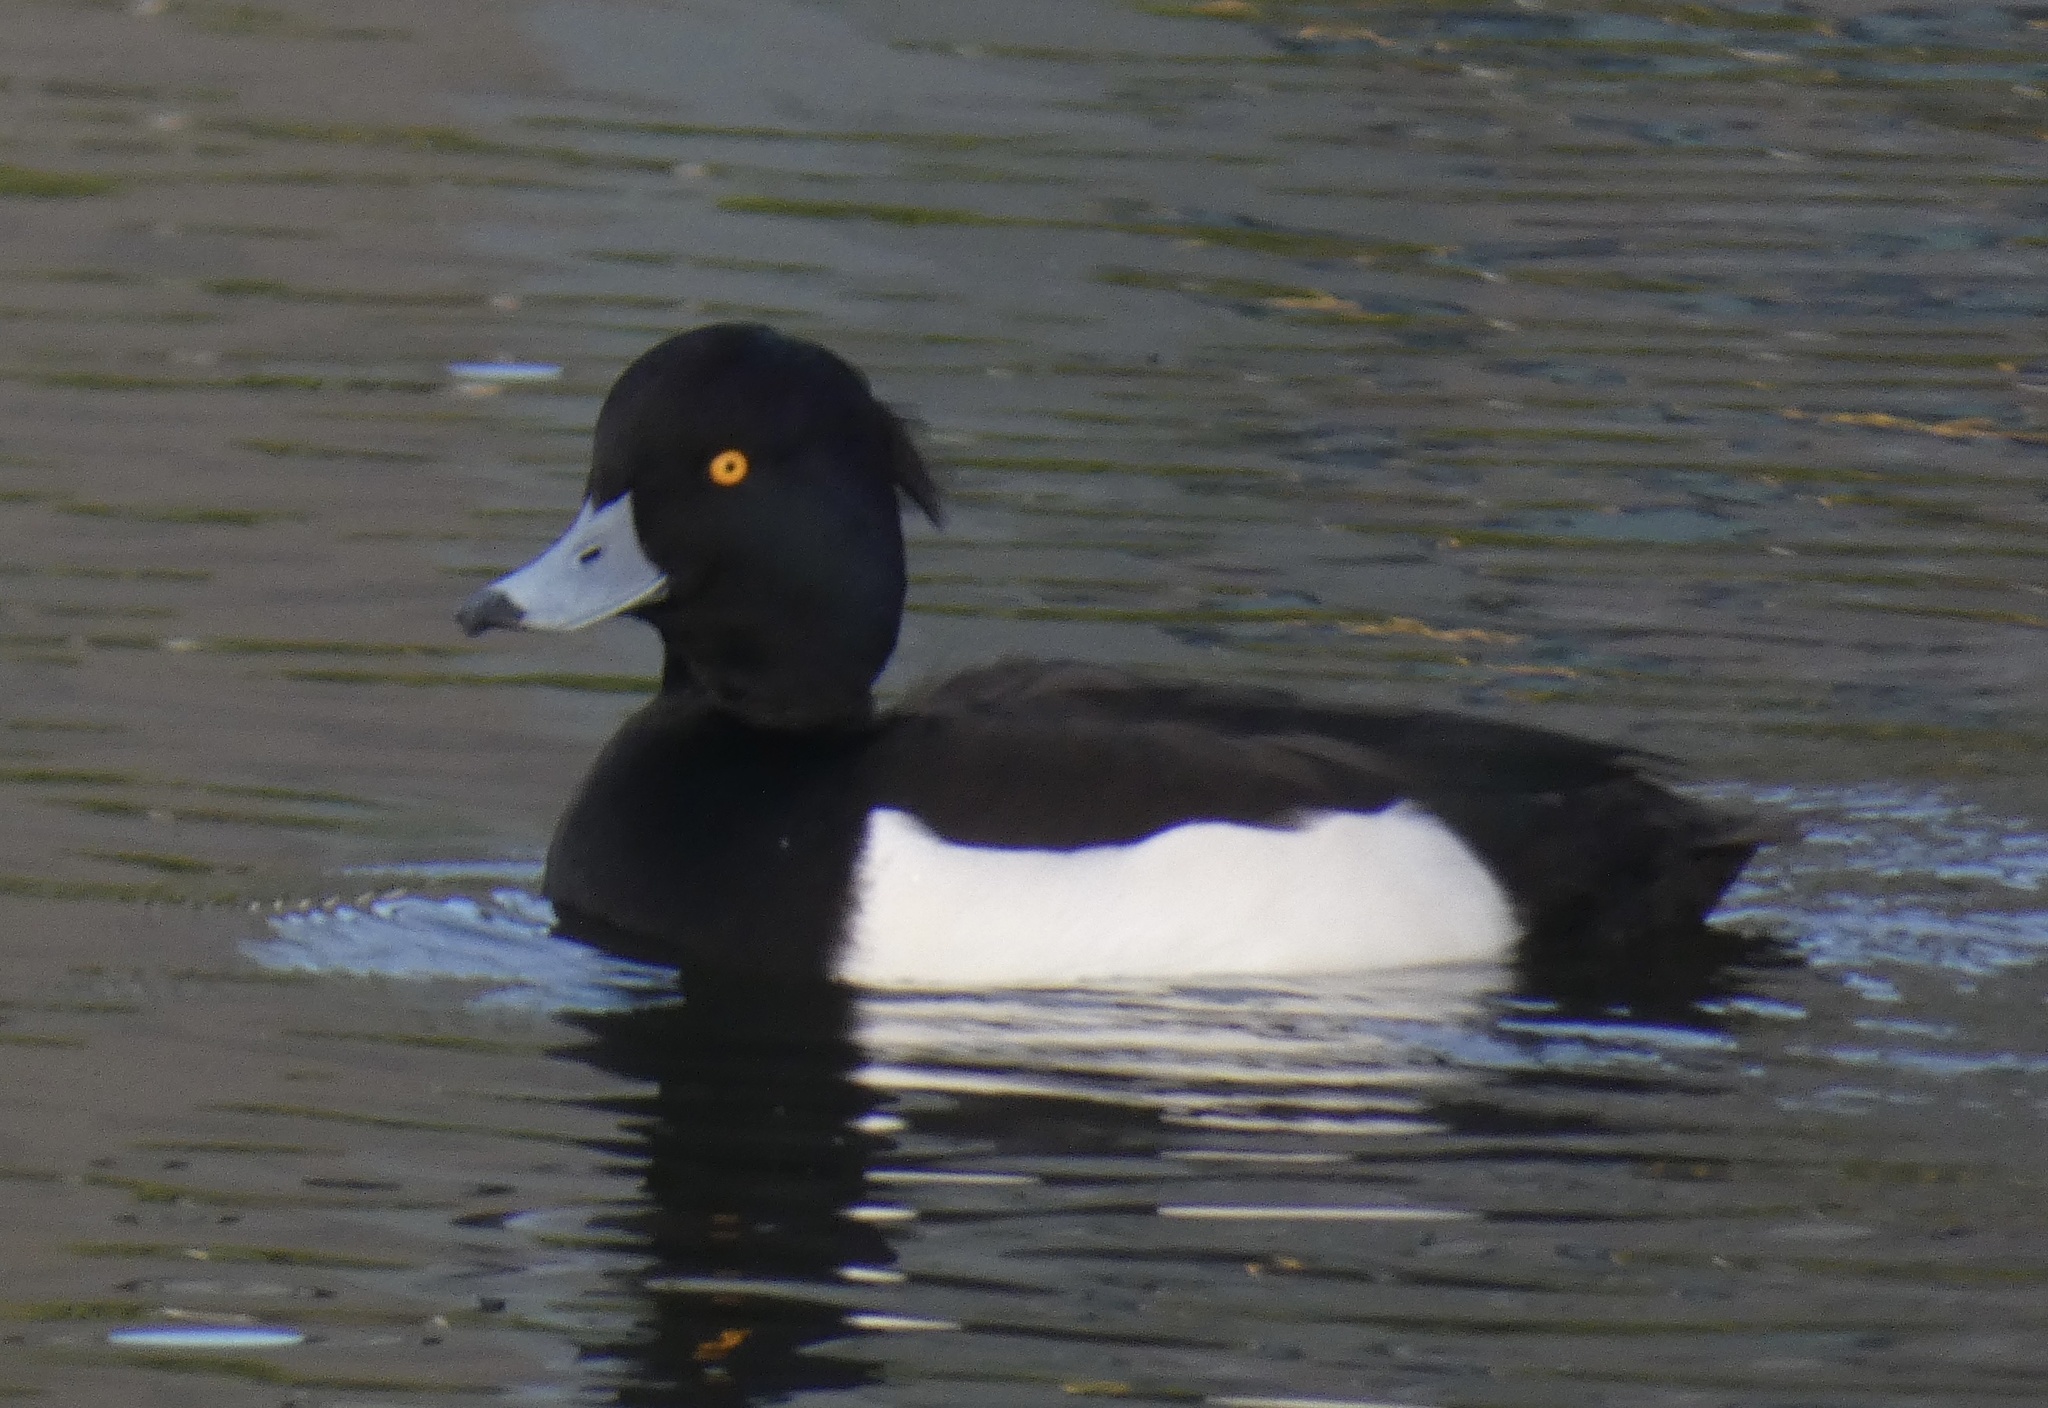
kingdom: Animalia
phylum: Chordata
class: Aves
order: Anseriformes
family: Anatidae
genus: Aythya
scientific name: Aythya fuligula
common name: Tufted duck
